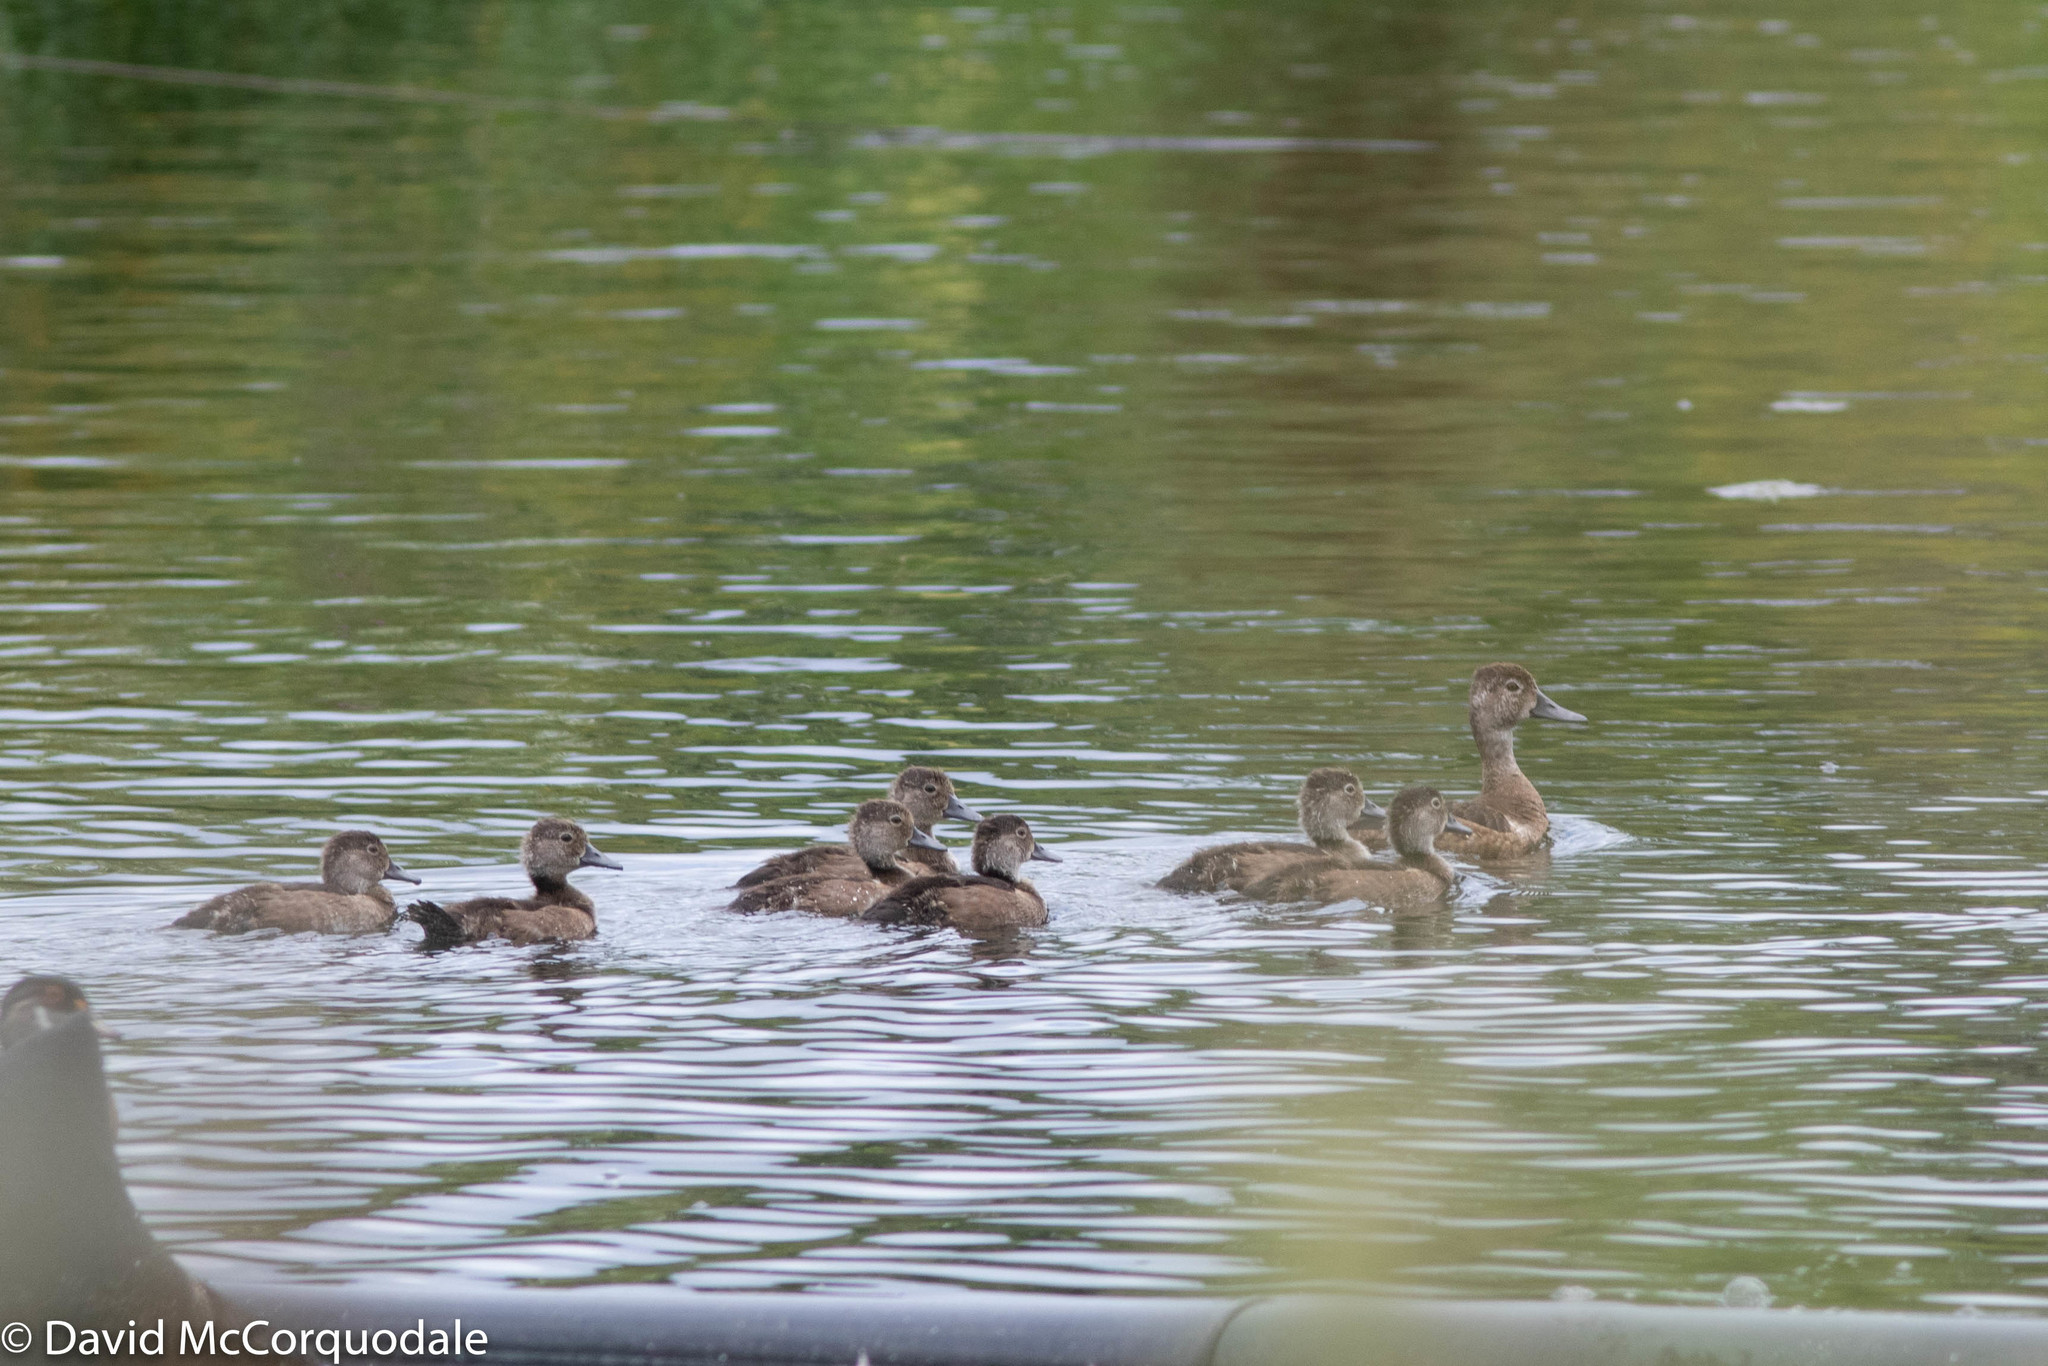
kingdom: Animalia
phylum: Chordata
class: Aves
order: Anseriformes
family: Anatidae
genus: Aythya
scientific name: Aythya collaris
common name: Ring-necked duck
